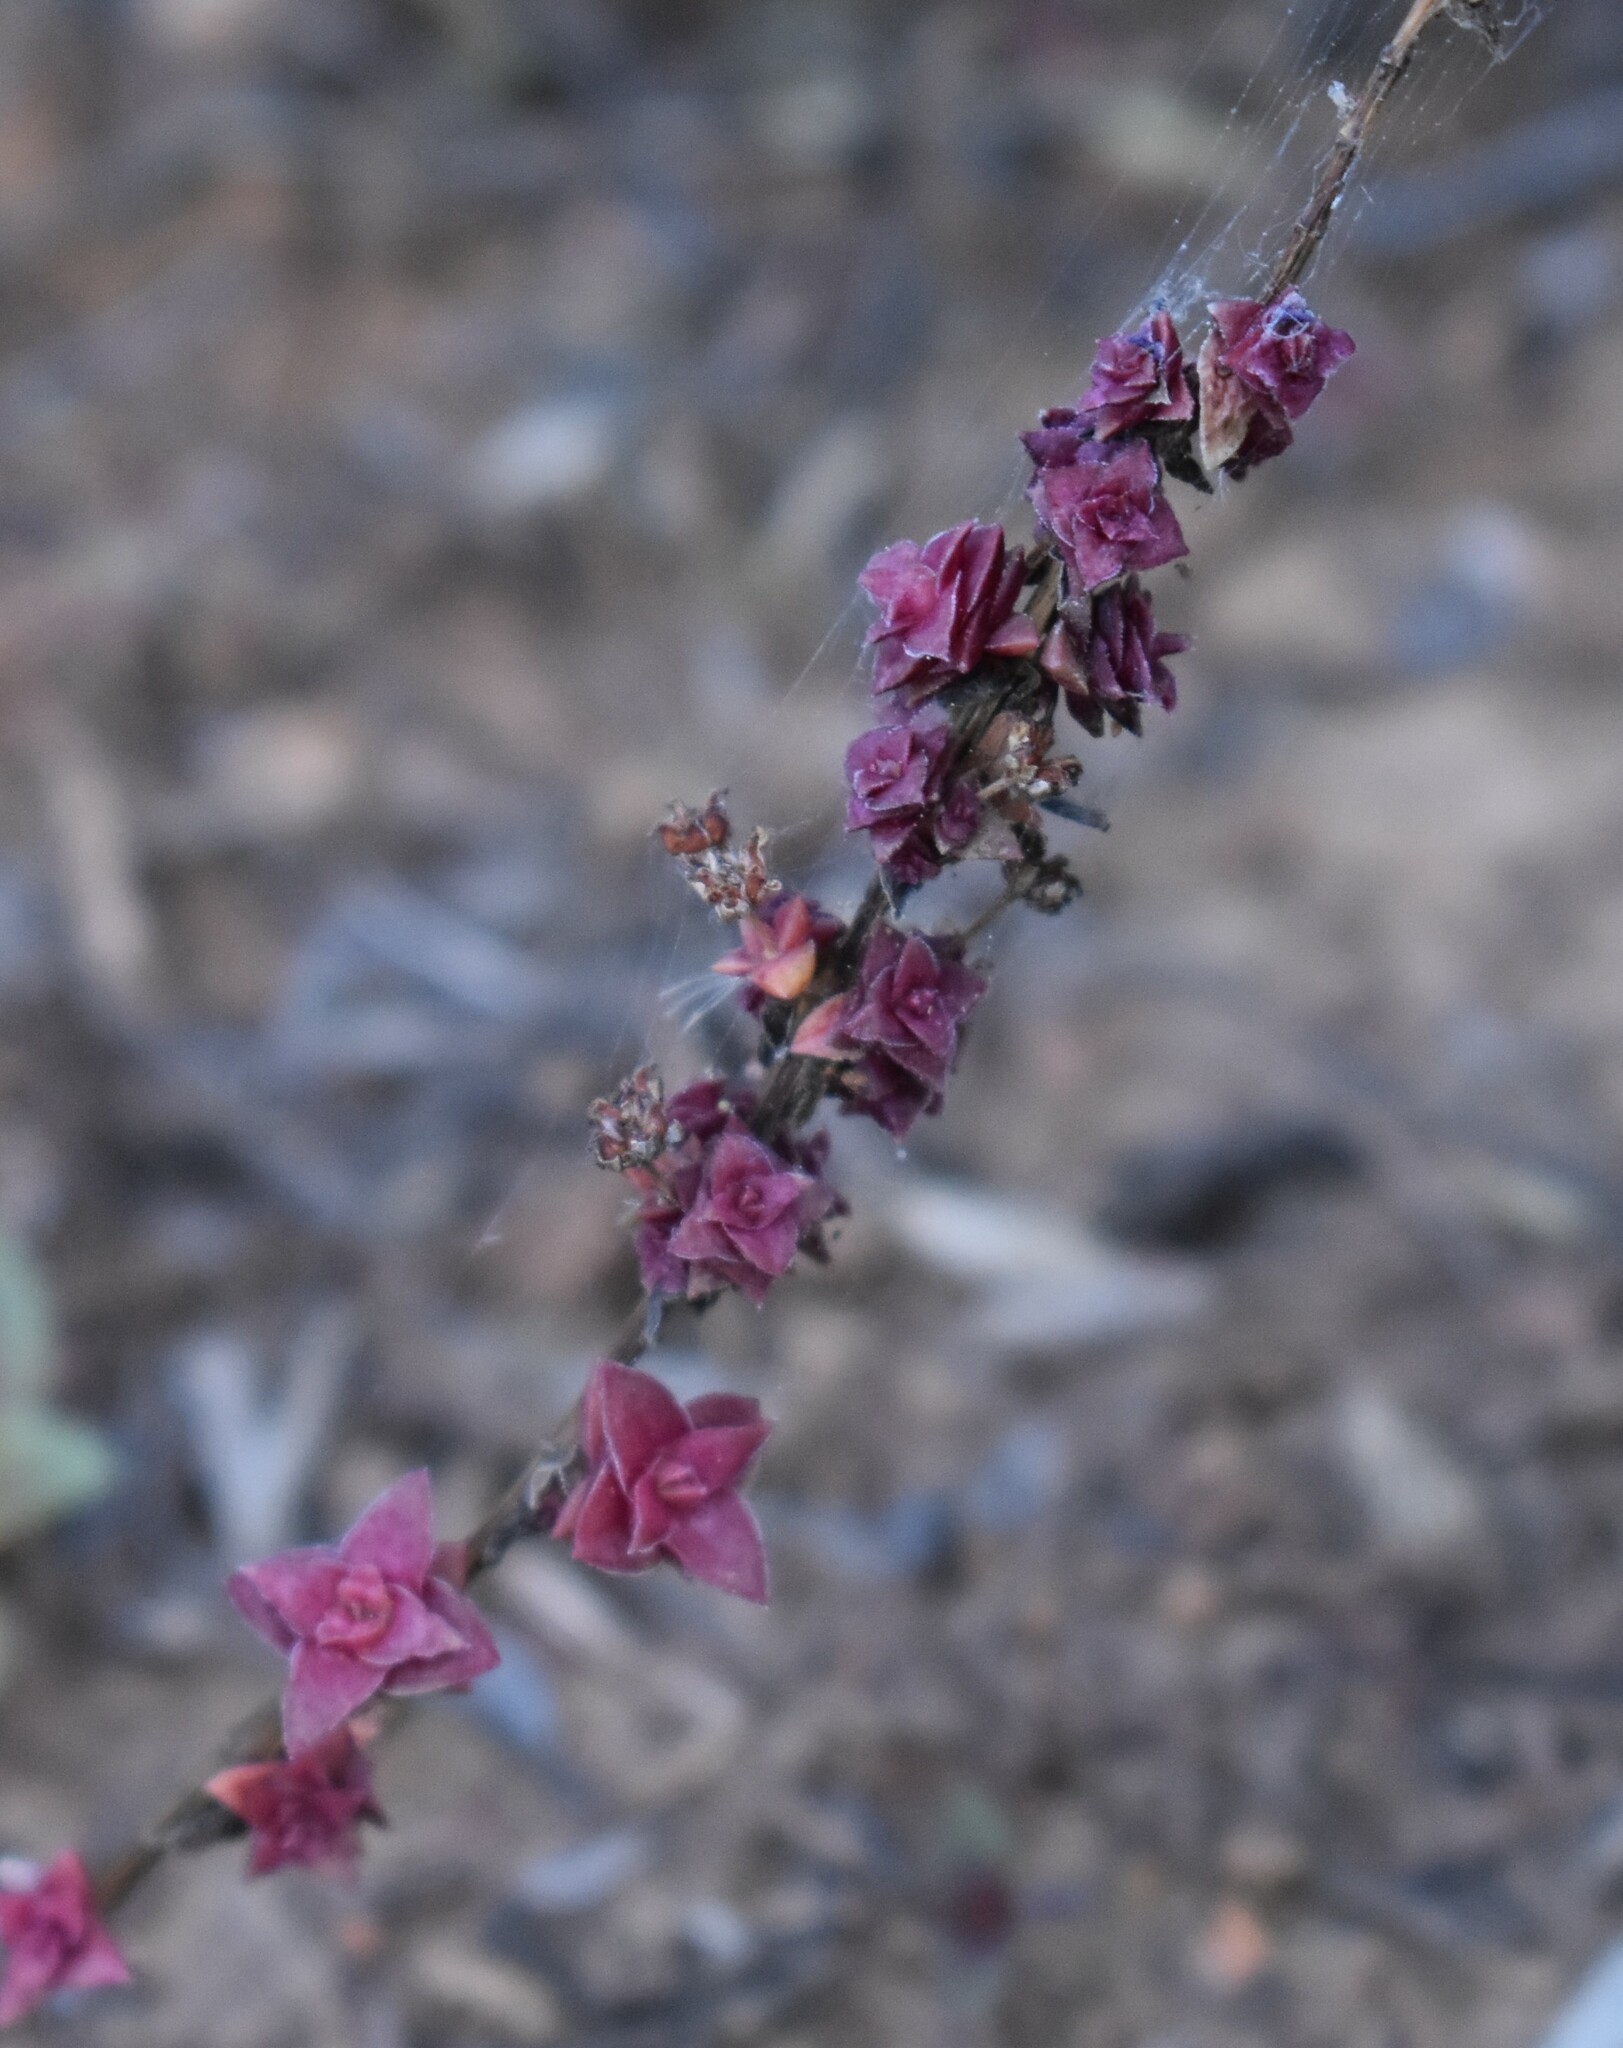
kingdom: Plantae
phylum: Tracheophyta
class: Magnoliopsida
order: Saxifragales
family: Crassulaceae
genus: Crassula
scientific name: Crassula capitella
